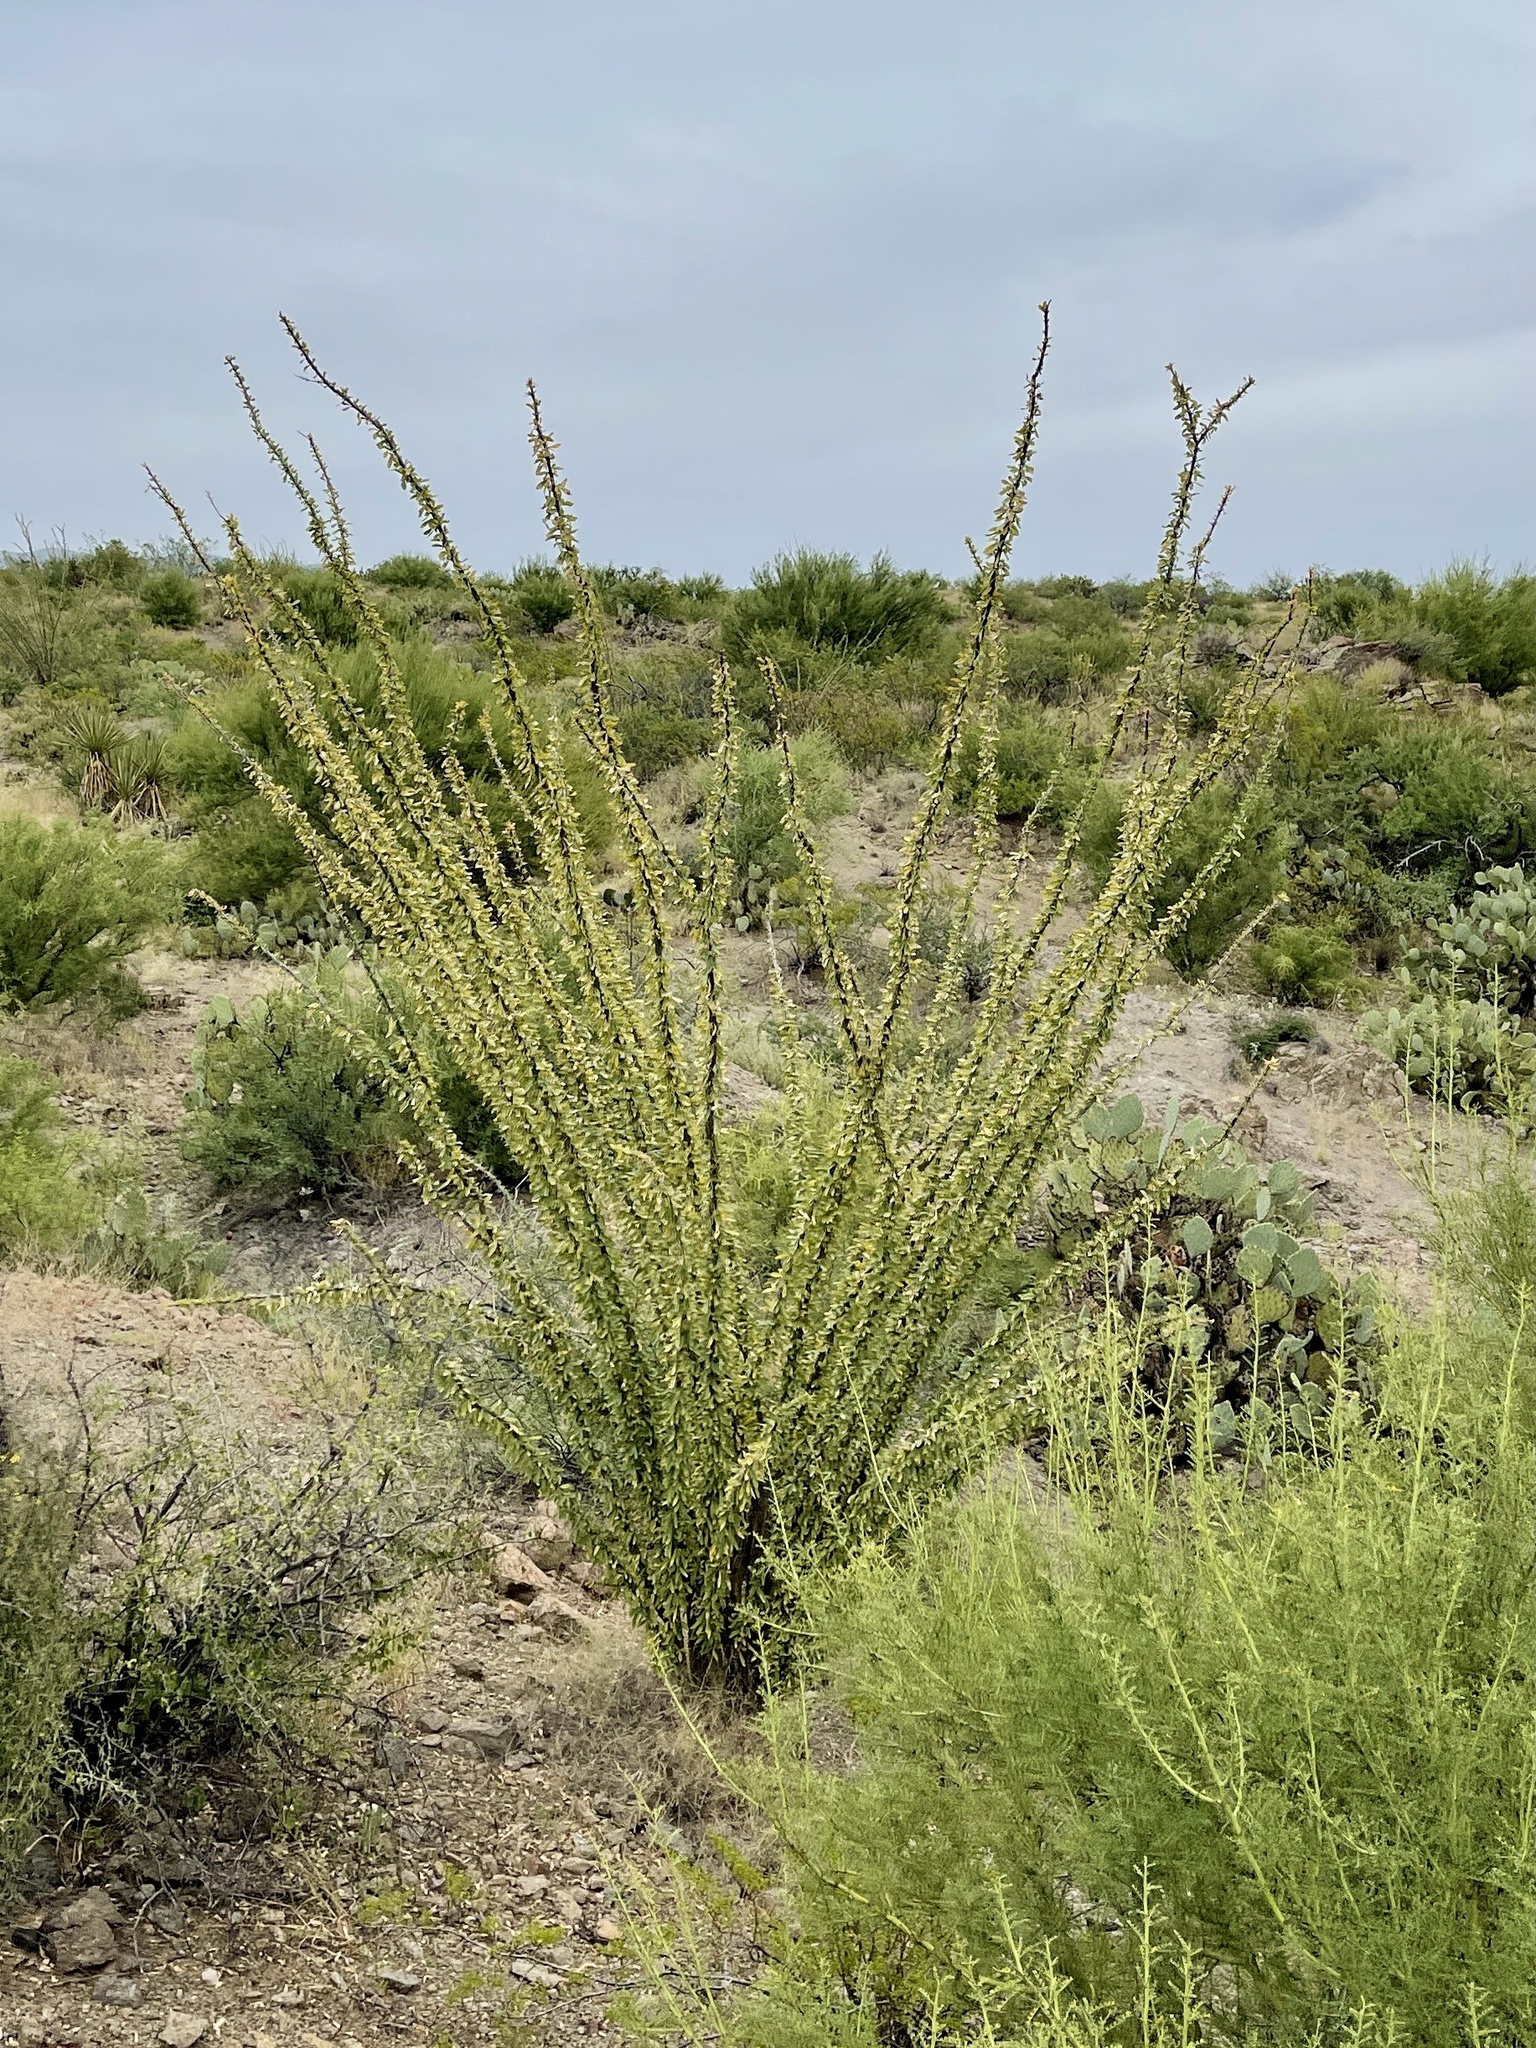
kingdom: Plantae
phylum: Tracheophyta
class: Magnoliopsida
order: Ericales
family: Fouquieriaceae
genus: Fouquieria
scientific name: Fouquieria splendens
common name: Vine-cactus
